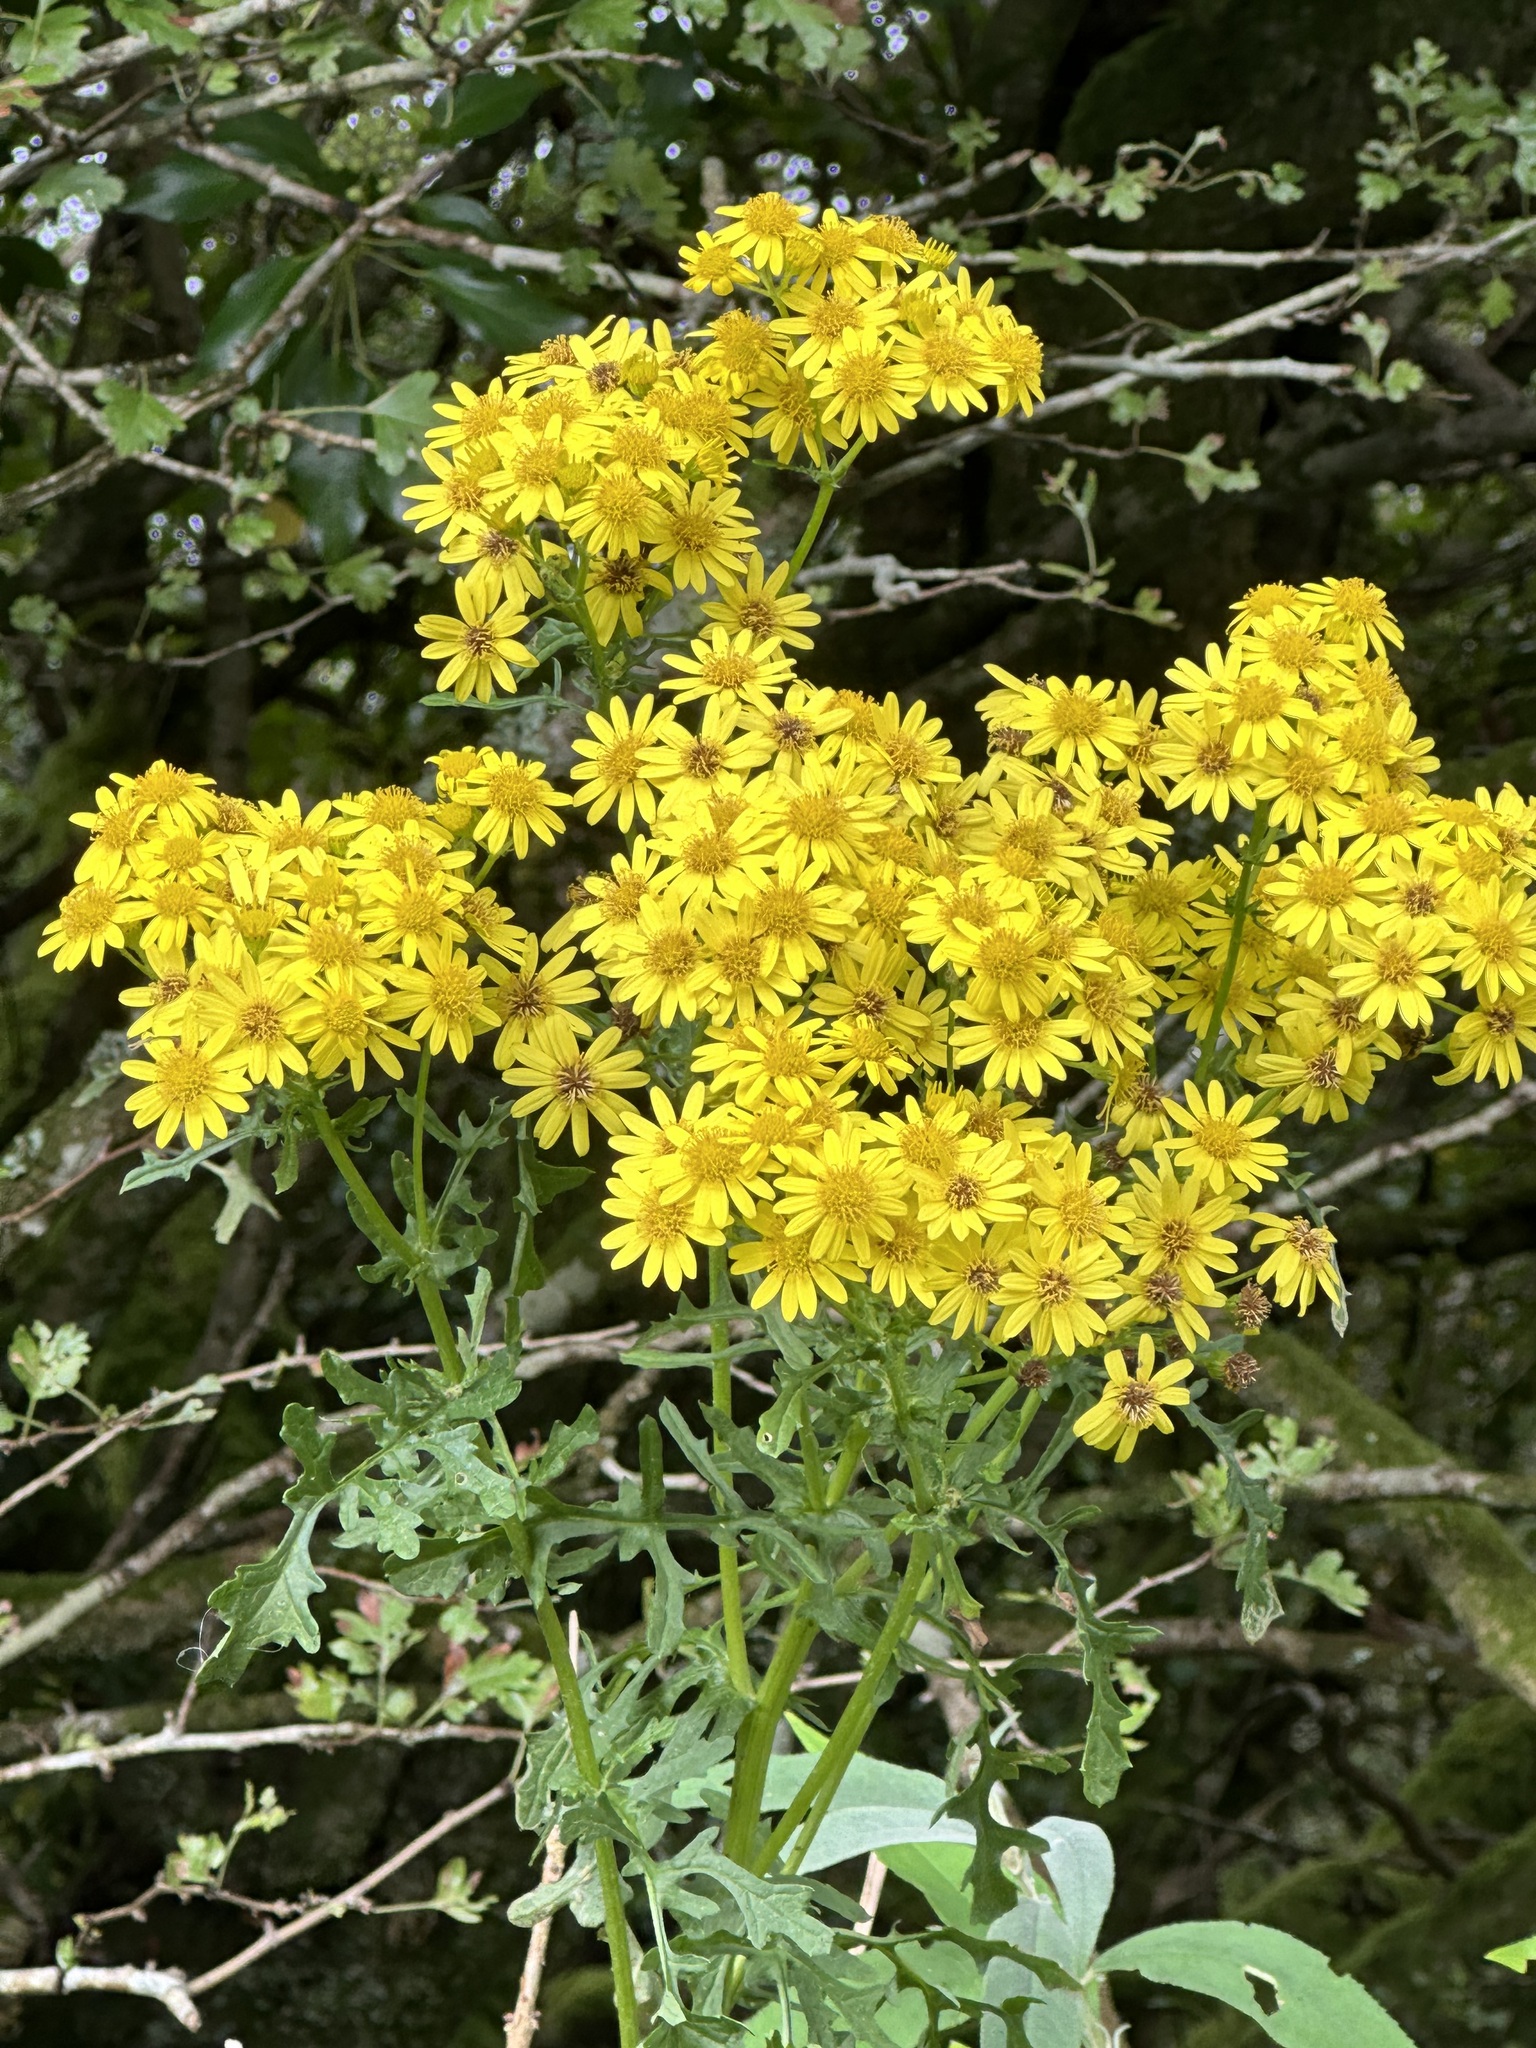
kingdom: Plantae
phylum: Tracheophyta
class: Magnoliopsida
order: Asterales
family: Asteraceae
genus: Jacobaea
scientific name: Jacobaea vulgaris
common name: Stinking willie
